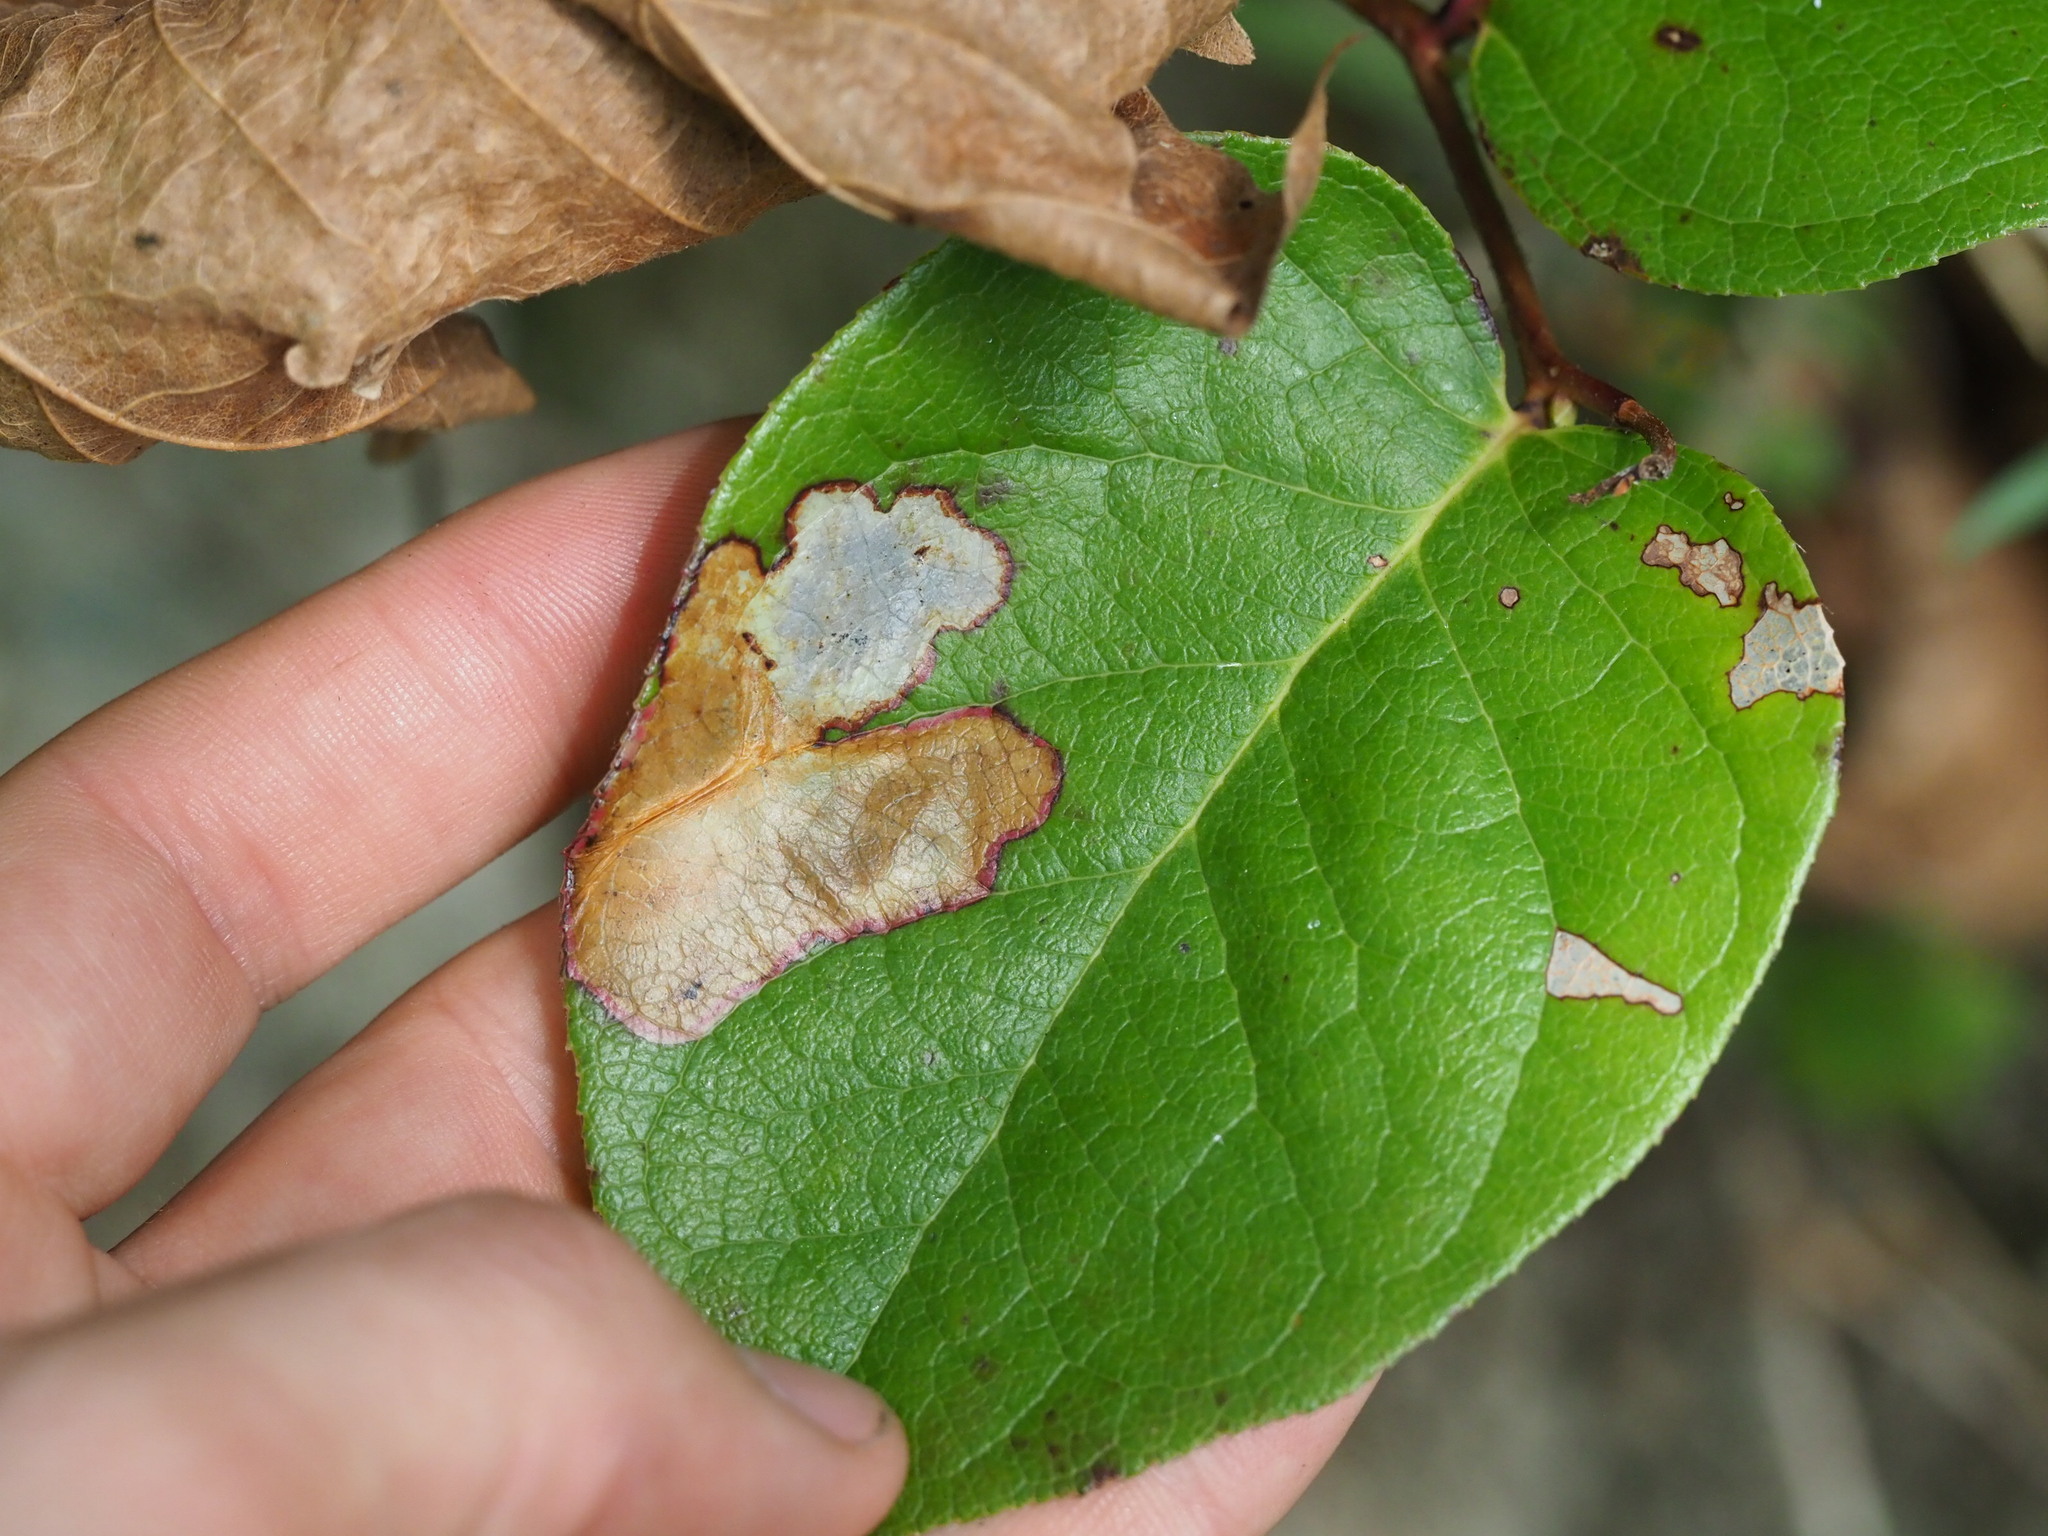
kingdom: Animalia
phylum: Arthropoda
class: Insecta
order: Lepidoptera
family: Gracillariidae
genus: Cameraria
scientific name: Cameraria gaultheriella
